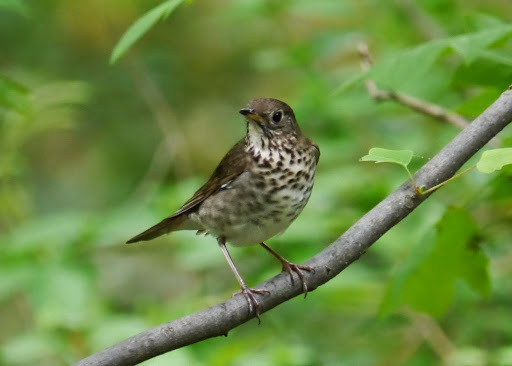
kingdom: Animalia
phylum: Chordata
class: Aves
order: Passeriformes
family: Turdidae
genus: Catharus
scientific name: Catharus minimus
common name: Grey-cheeked thrush
